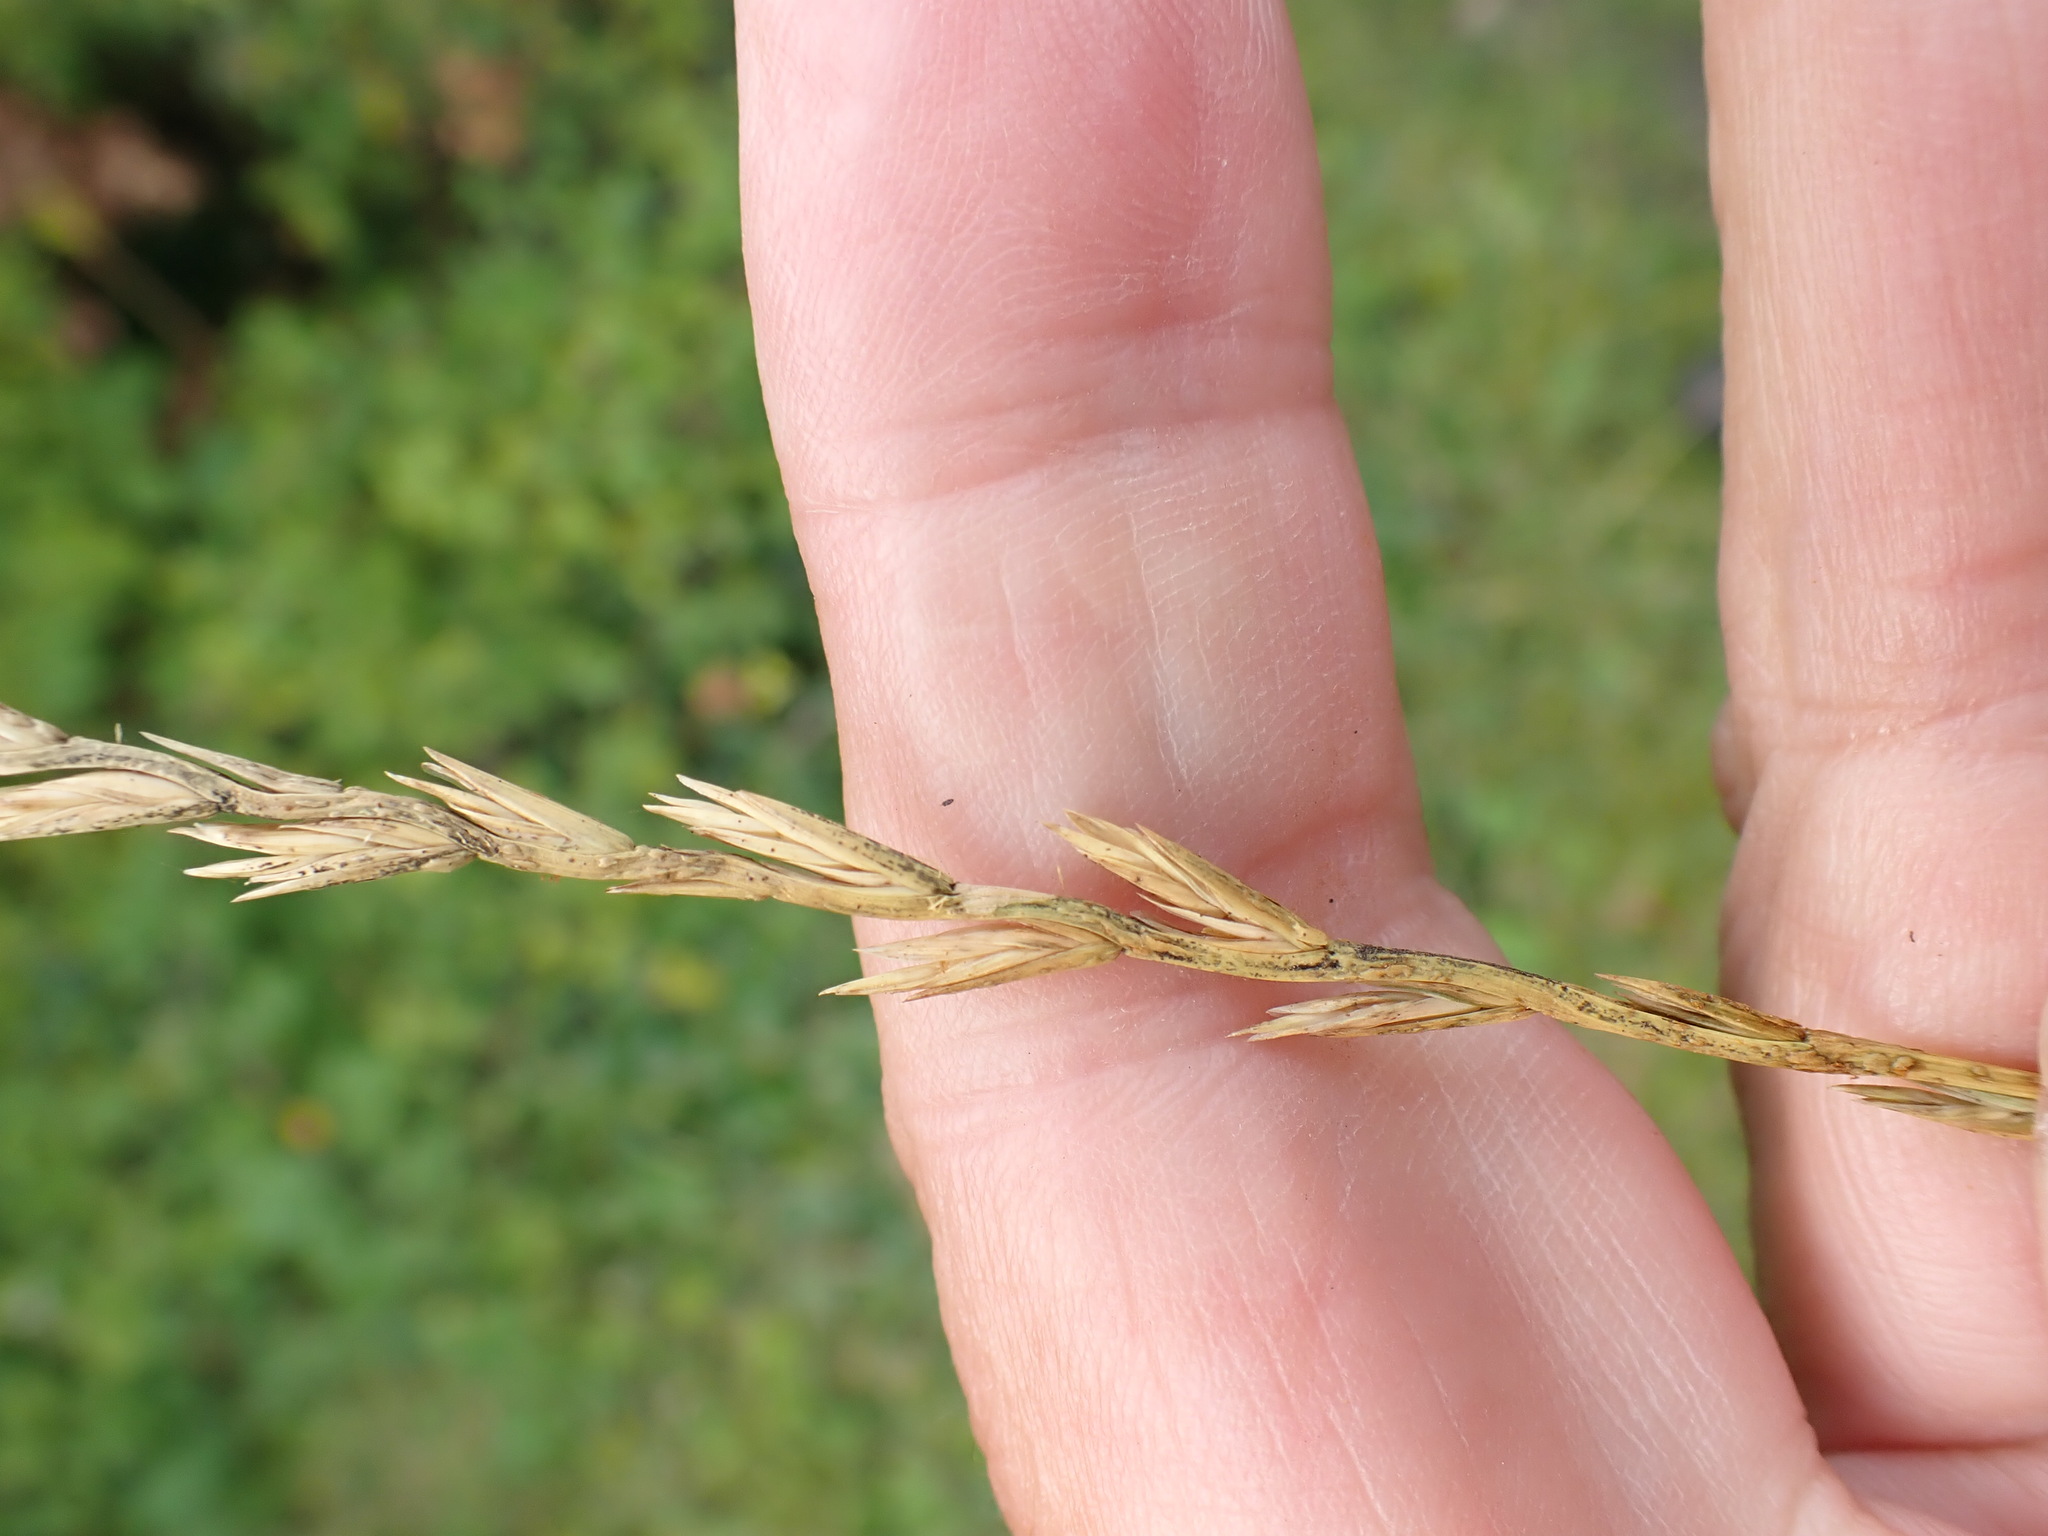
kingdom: Plantae
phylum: Tracheophyta
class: Liliopsida
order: Poales
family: Poaceae
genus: Lolium
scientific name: Lolium perenne
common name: Perennial ryegrass
